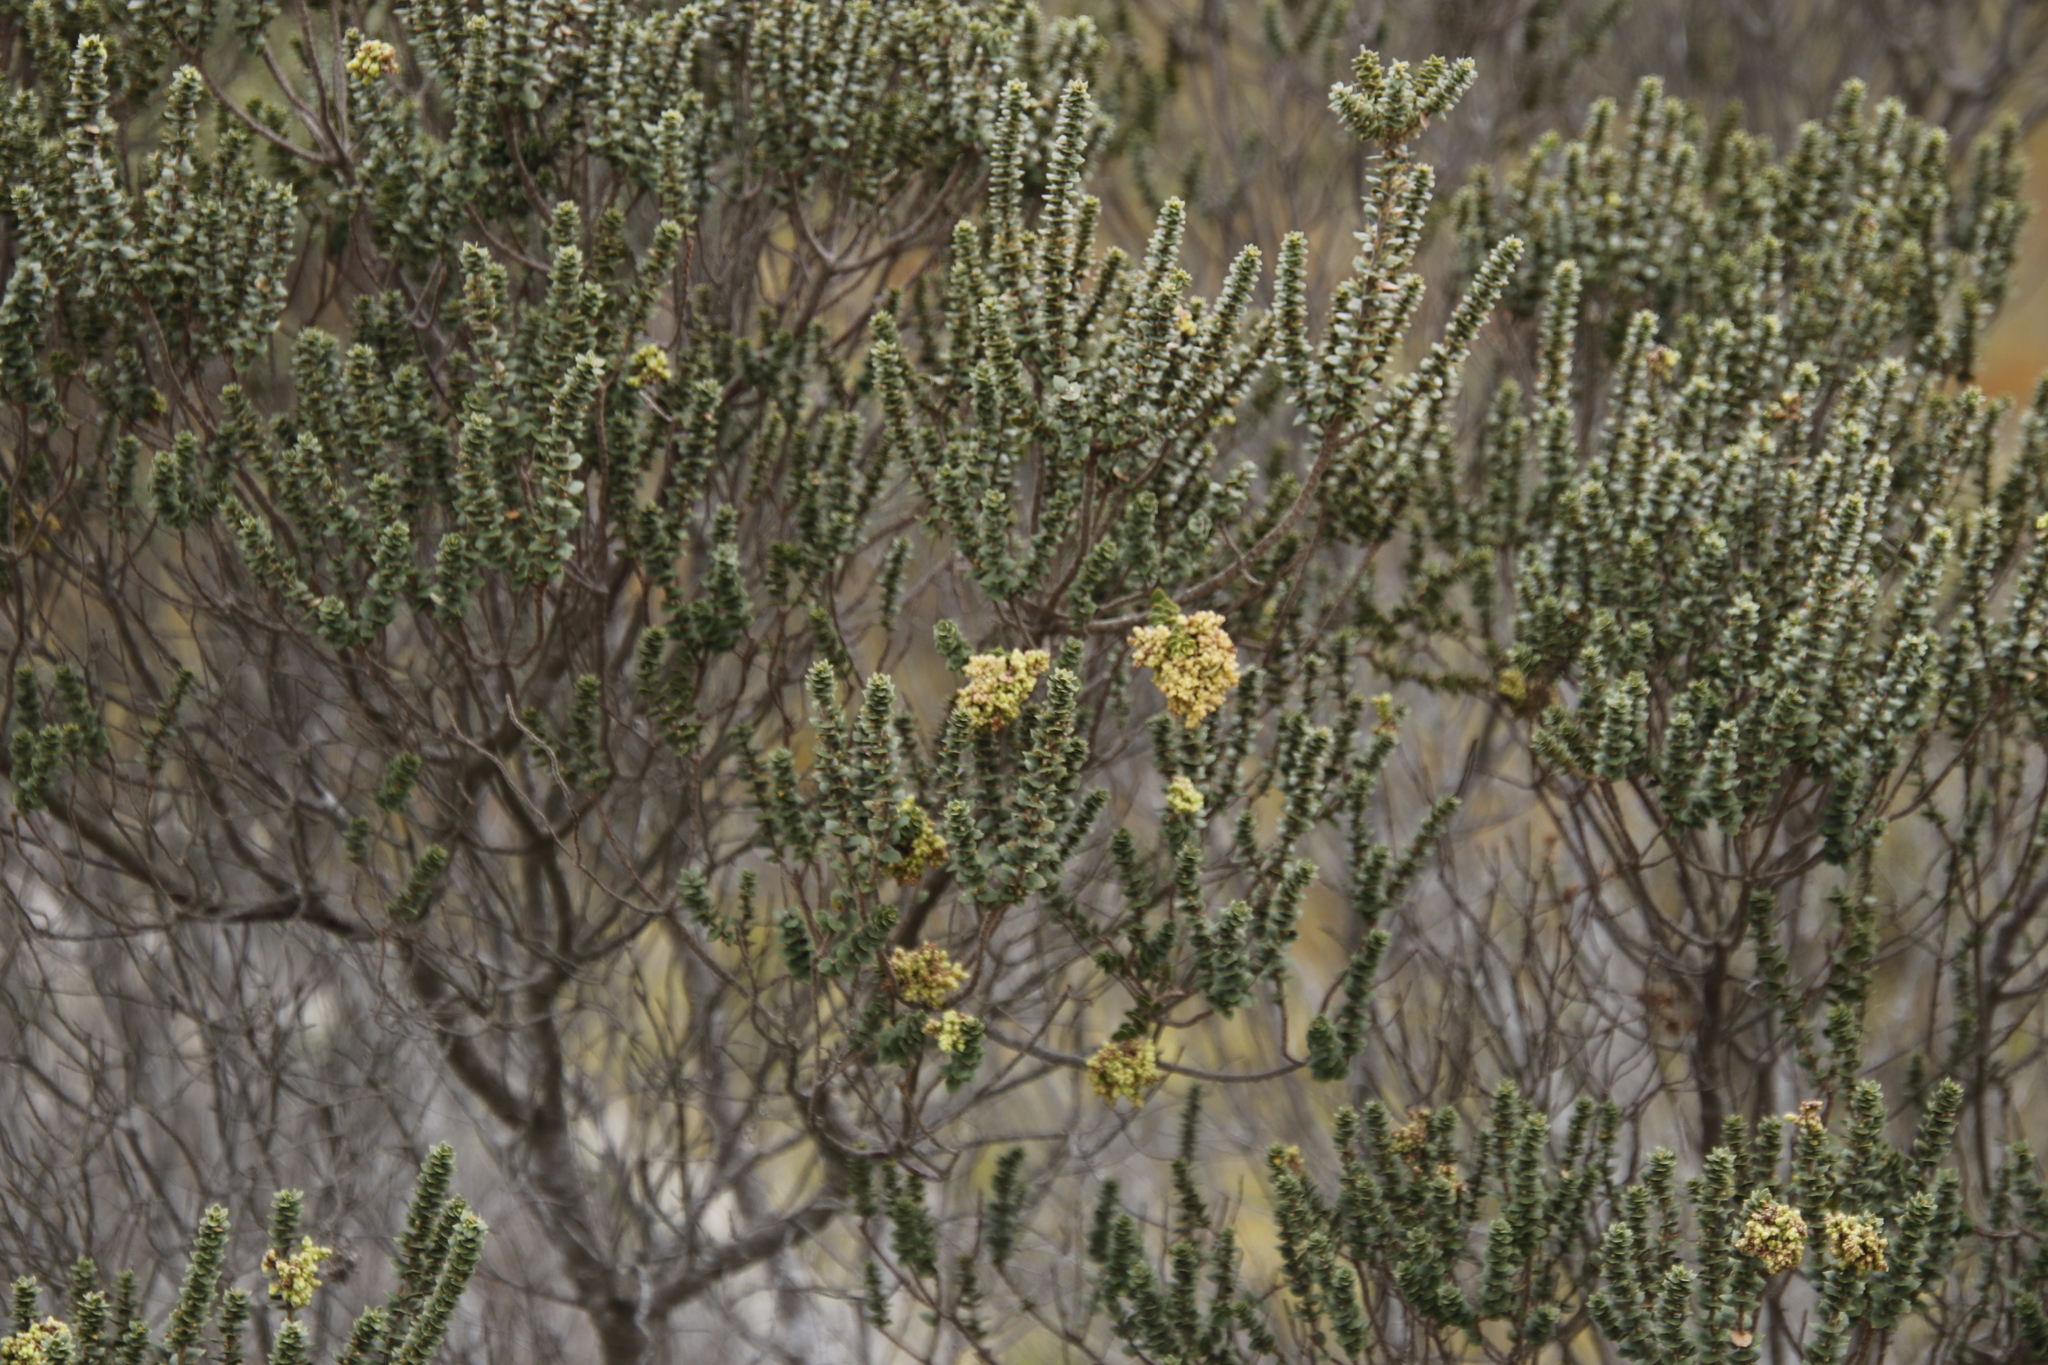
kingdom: Plantae
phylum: Tracheophyta
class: Magnoliopsida
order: Fagales
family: Myricaceae
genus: Morella
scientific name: Morella cordifolia
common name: Waxberry
